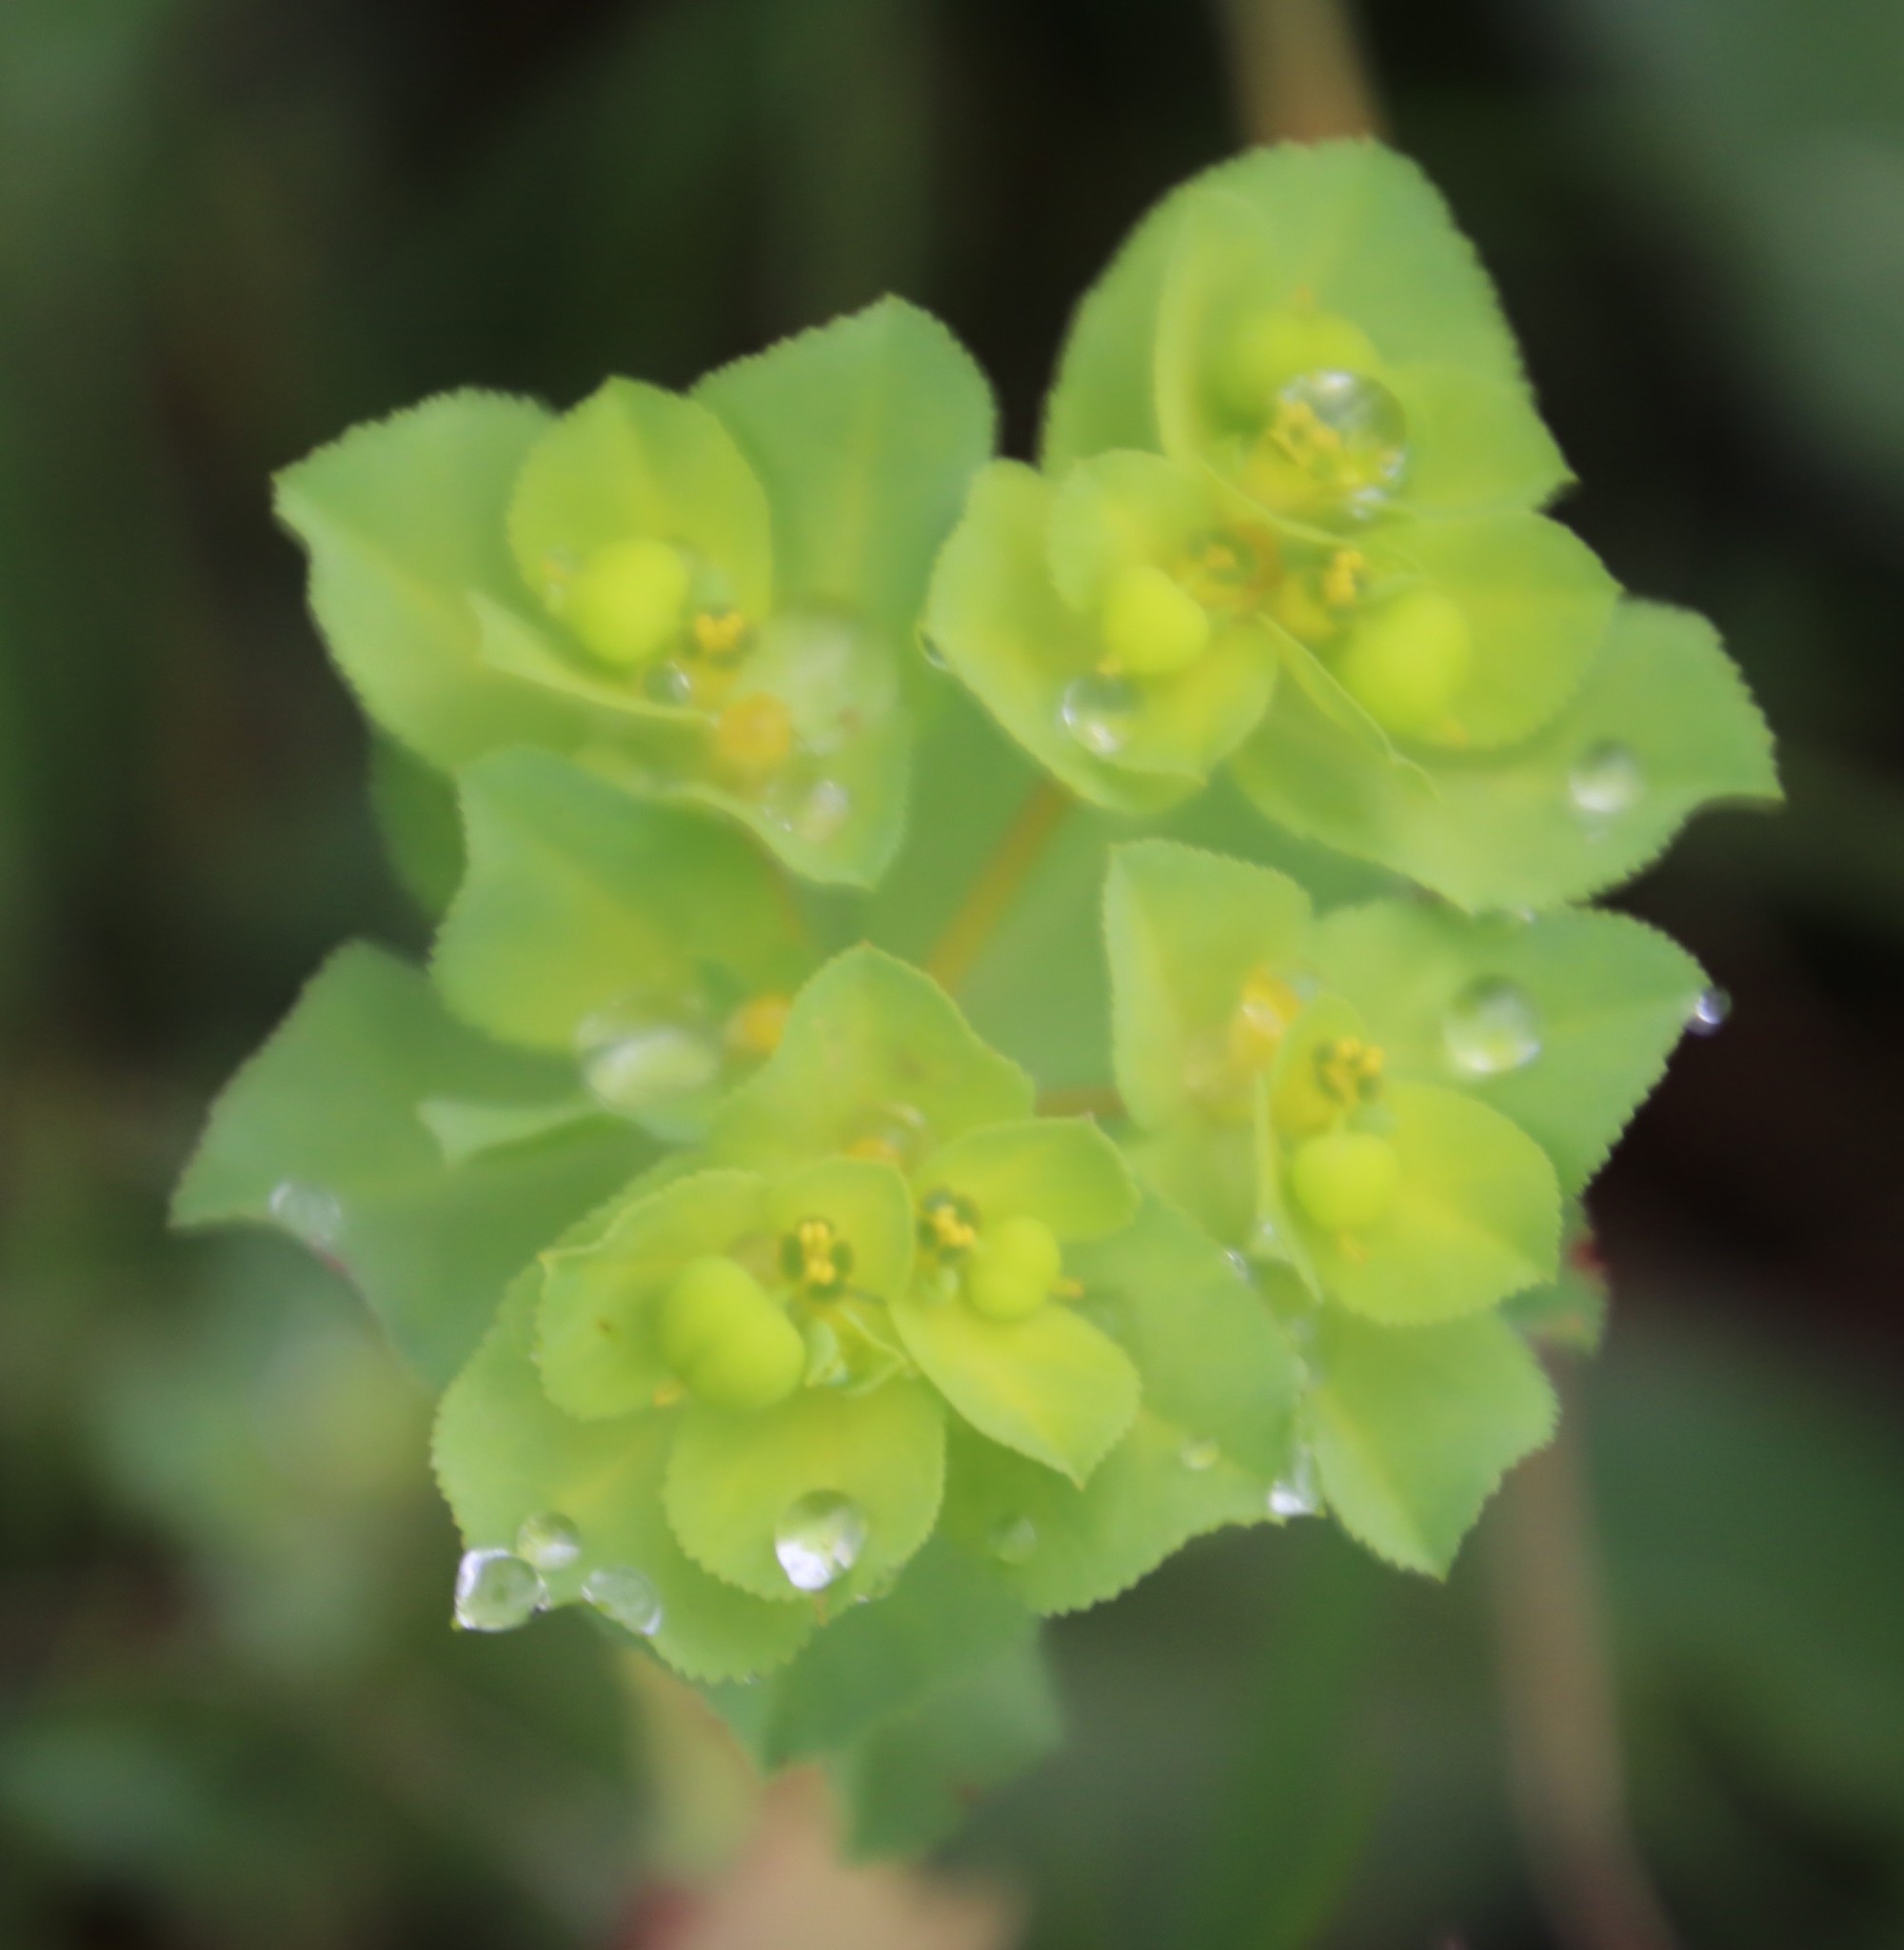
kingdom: Plantae
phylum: Tracheophyta
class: Magnoliopsida
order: Malpighiales
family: Euphorbiaceae
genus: Euphorbia
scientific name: Euphorbia helioscopia
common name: Sun spurge
